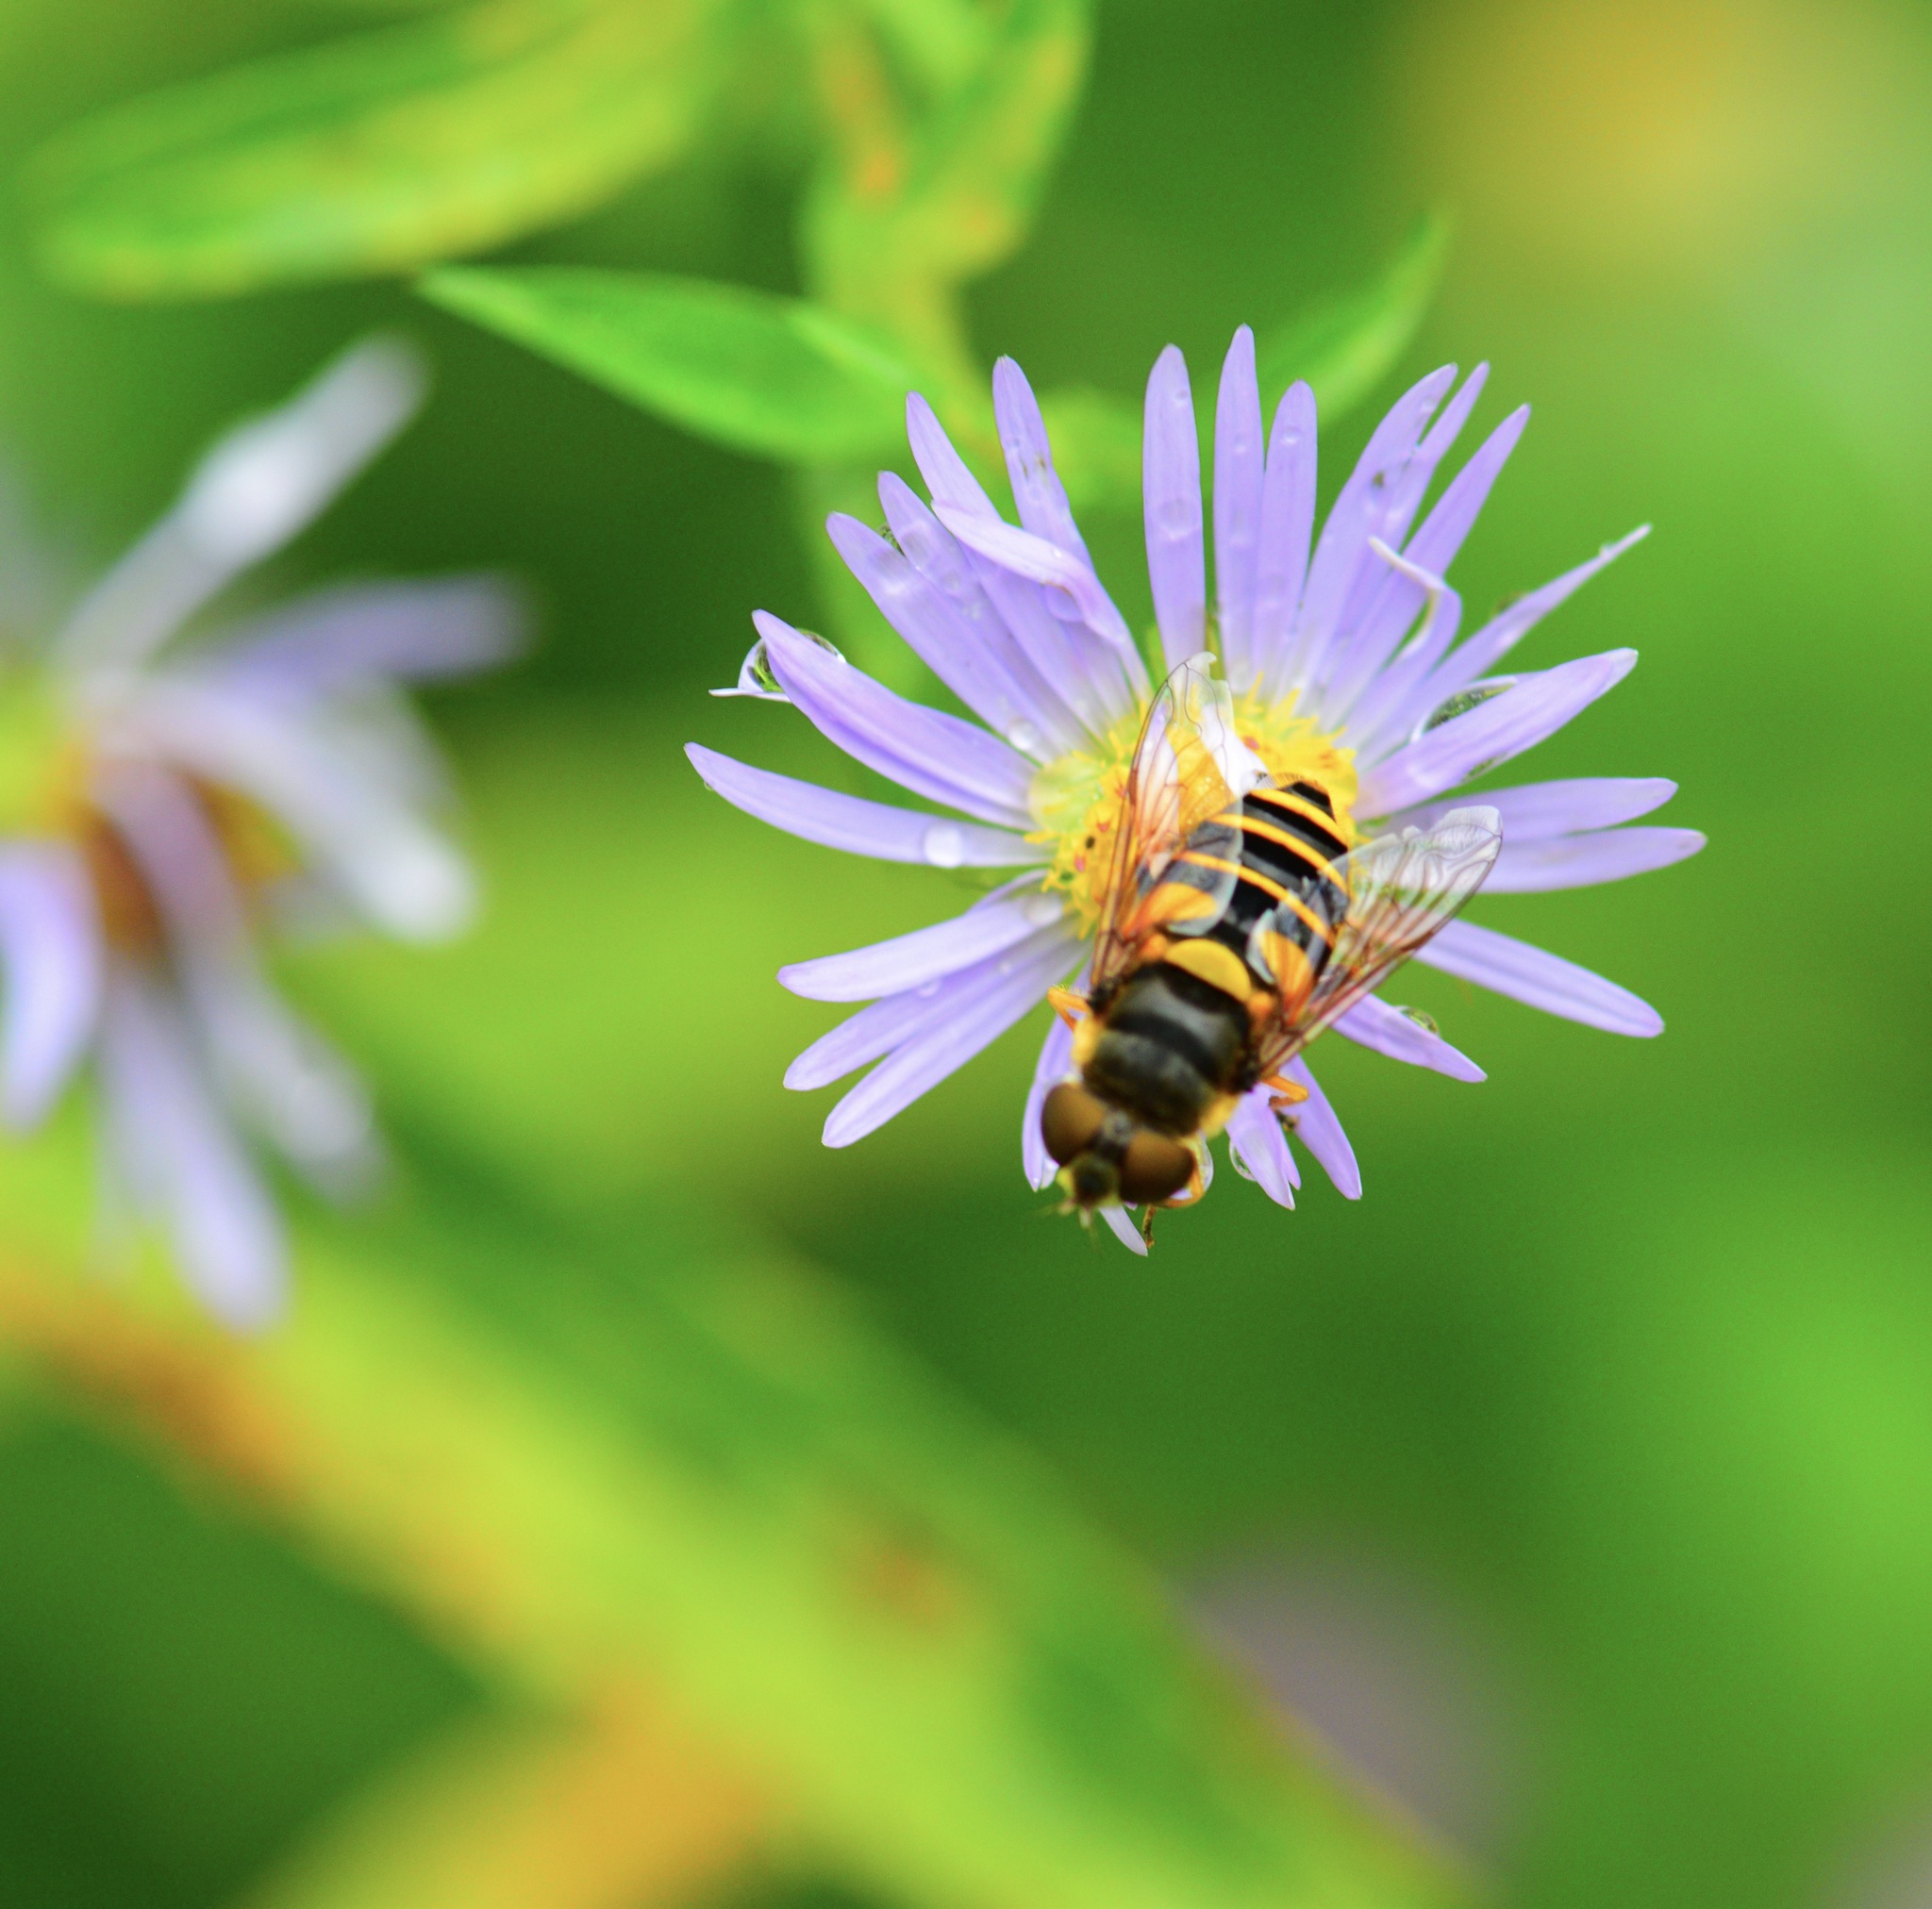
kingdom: Animalia
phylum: Arthropoda
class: Insecta
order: Diptera
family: Syrphidae
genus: Eristalis
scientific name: Eristalis transversa
